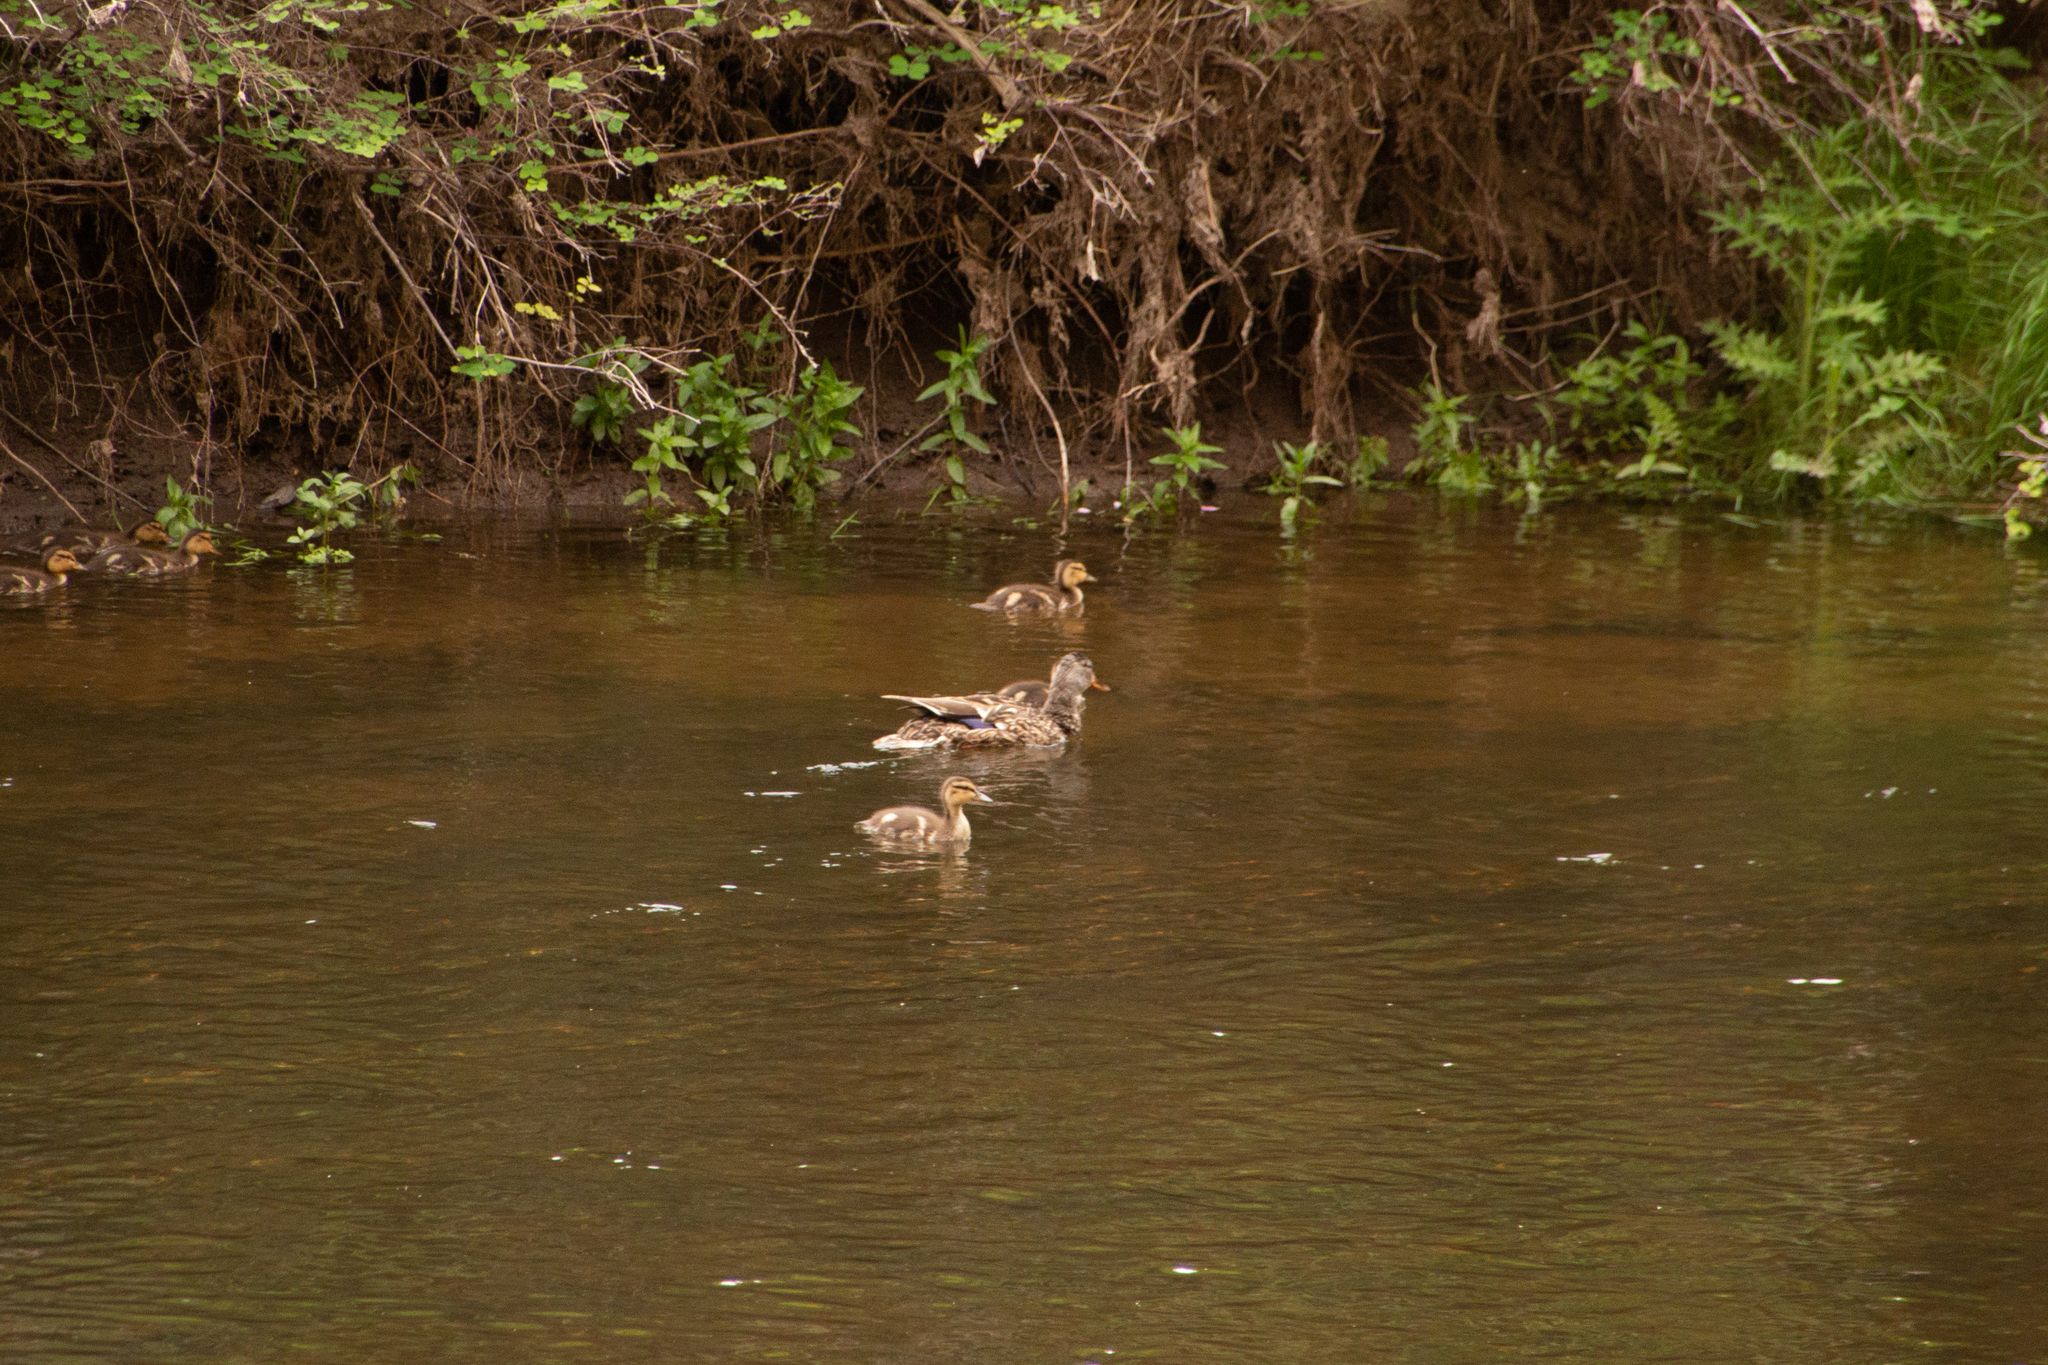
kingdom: Animalia
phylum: Chordata
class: Aves
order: Anseriformes
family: Anatidae
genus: Anas
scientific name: Anas platyrhynchos
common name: Mallard
